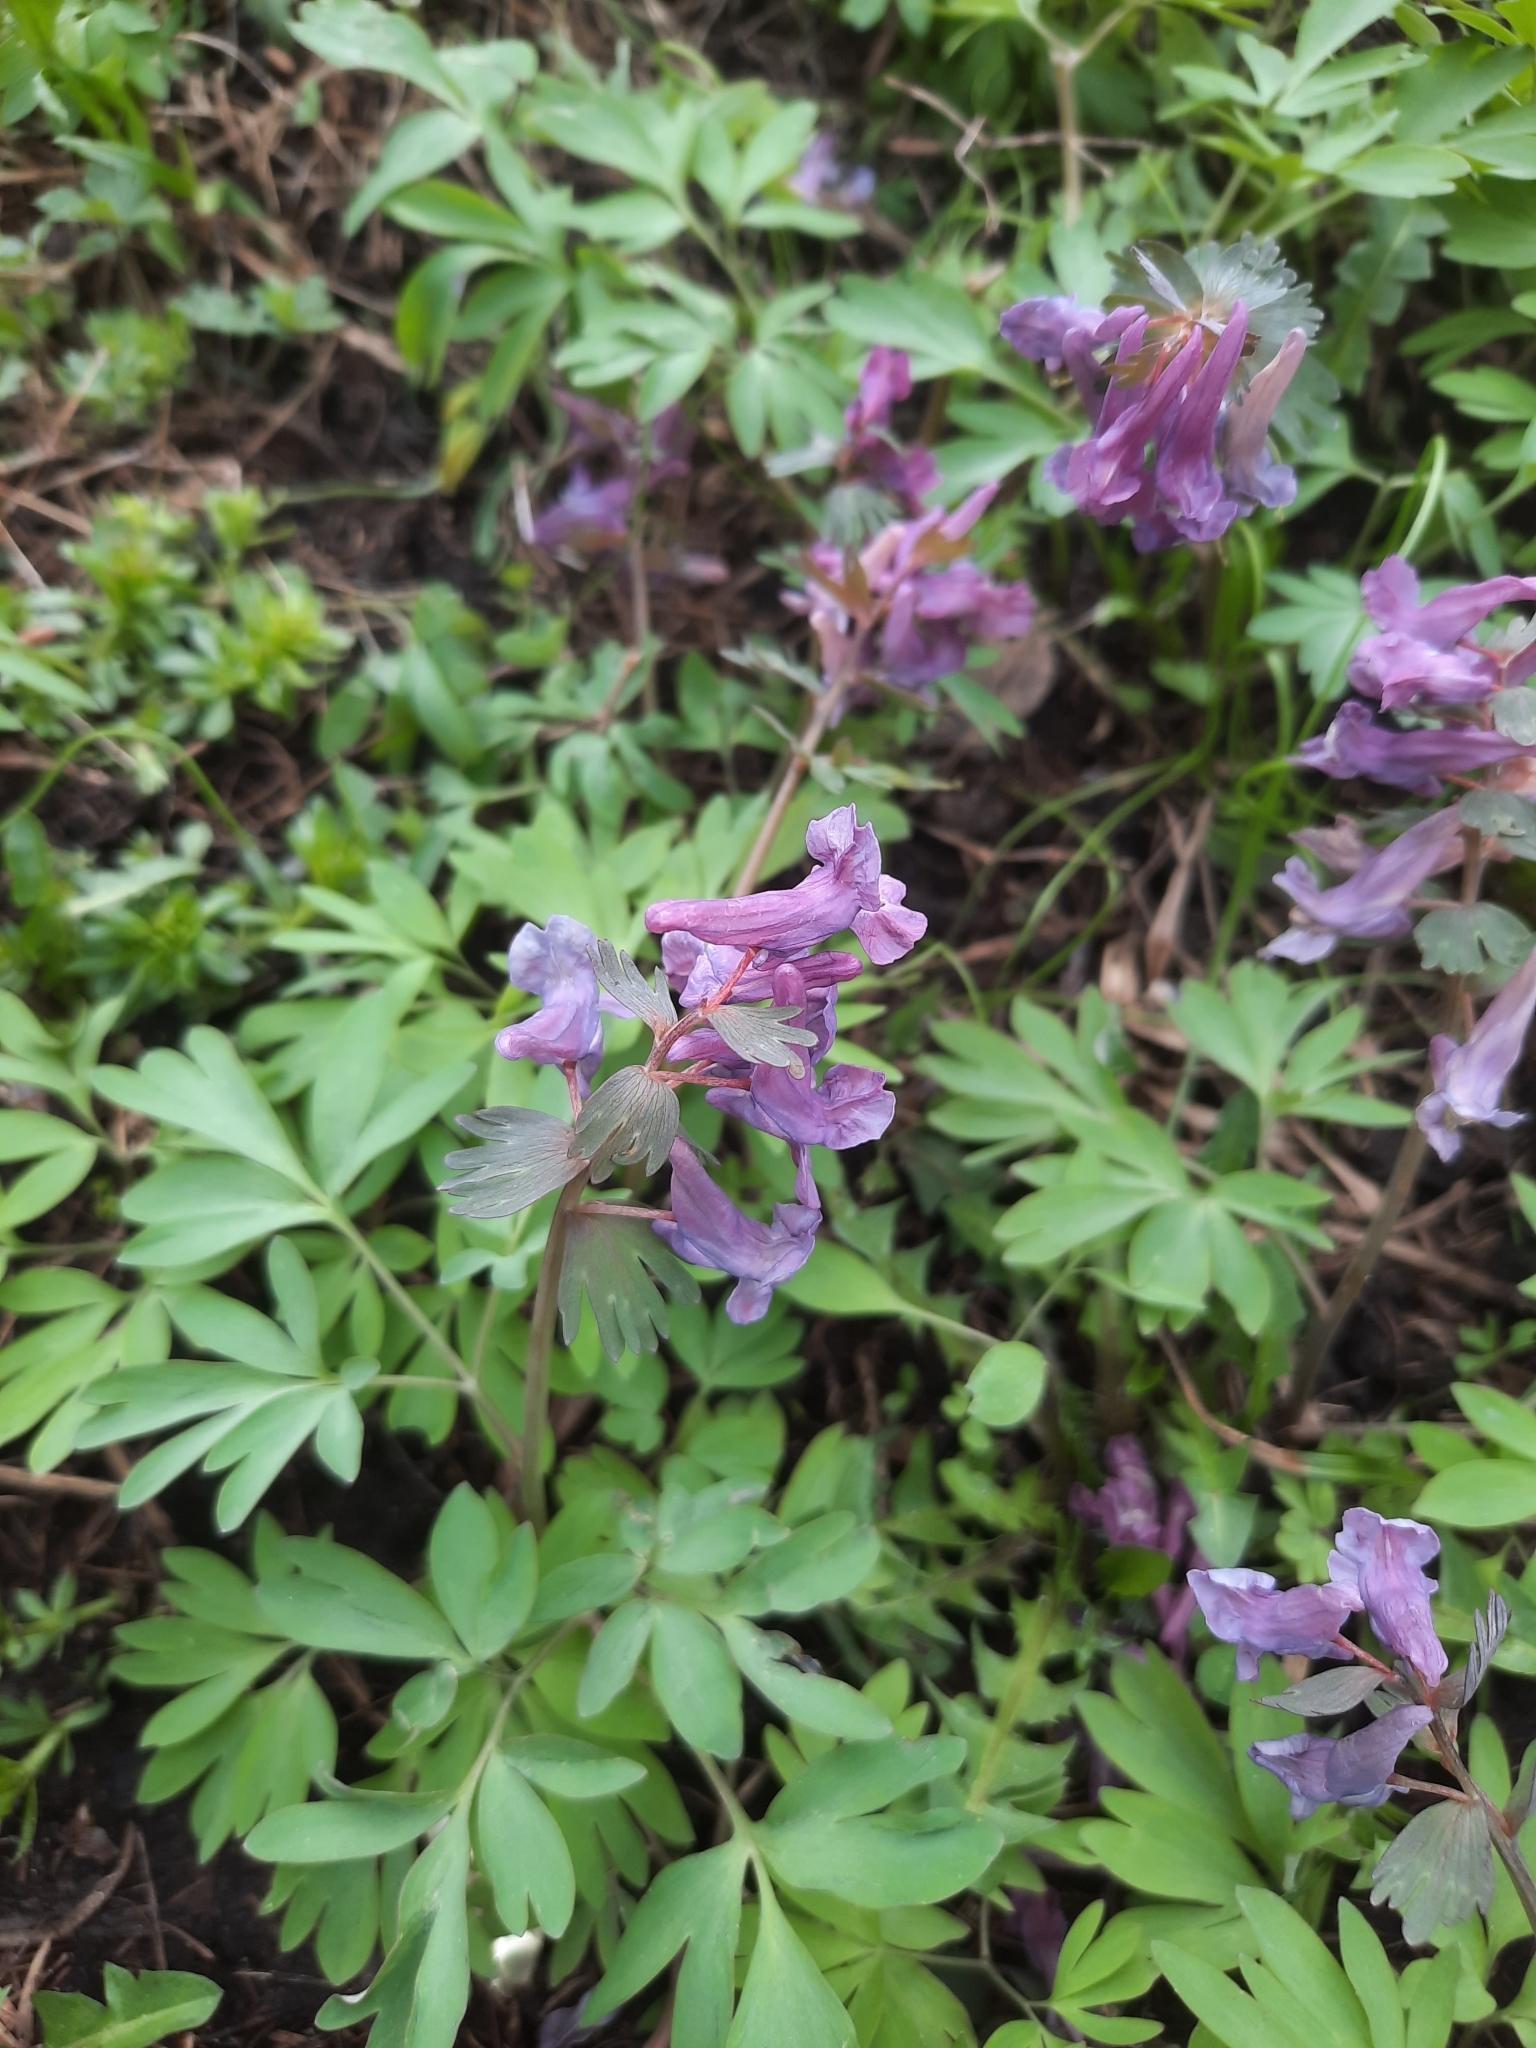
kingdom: Plantae
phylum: Tracheophyta
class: Magnoliopsida
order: Ranunculales
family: Papaveraceae
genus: Corydalis
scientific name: Corydalis solida
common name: Bird-in-a-bush
